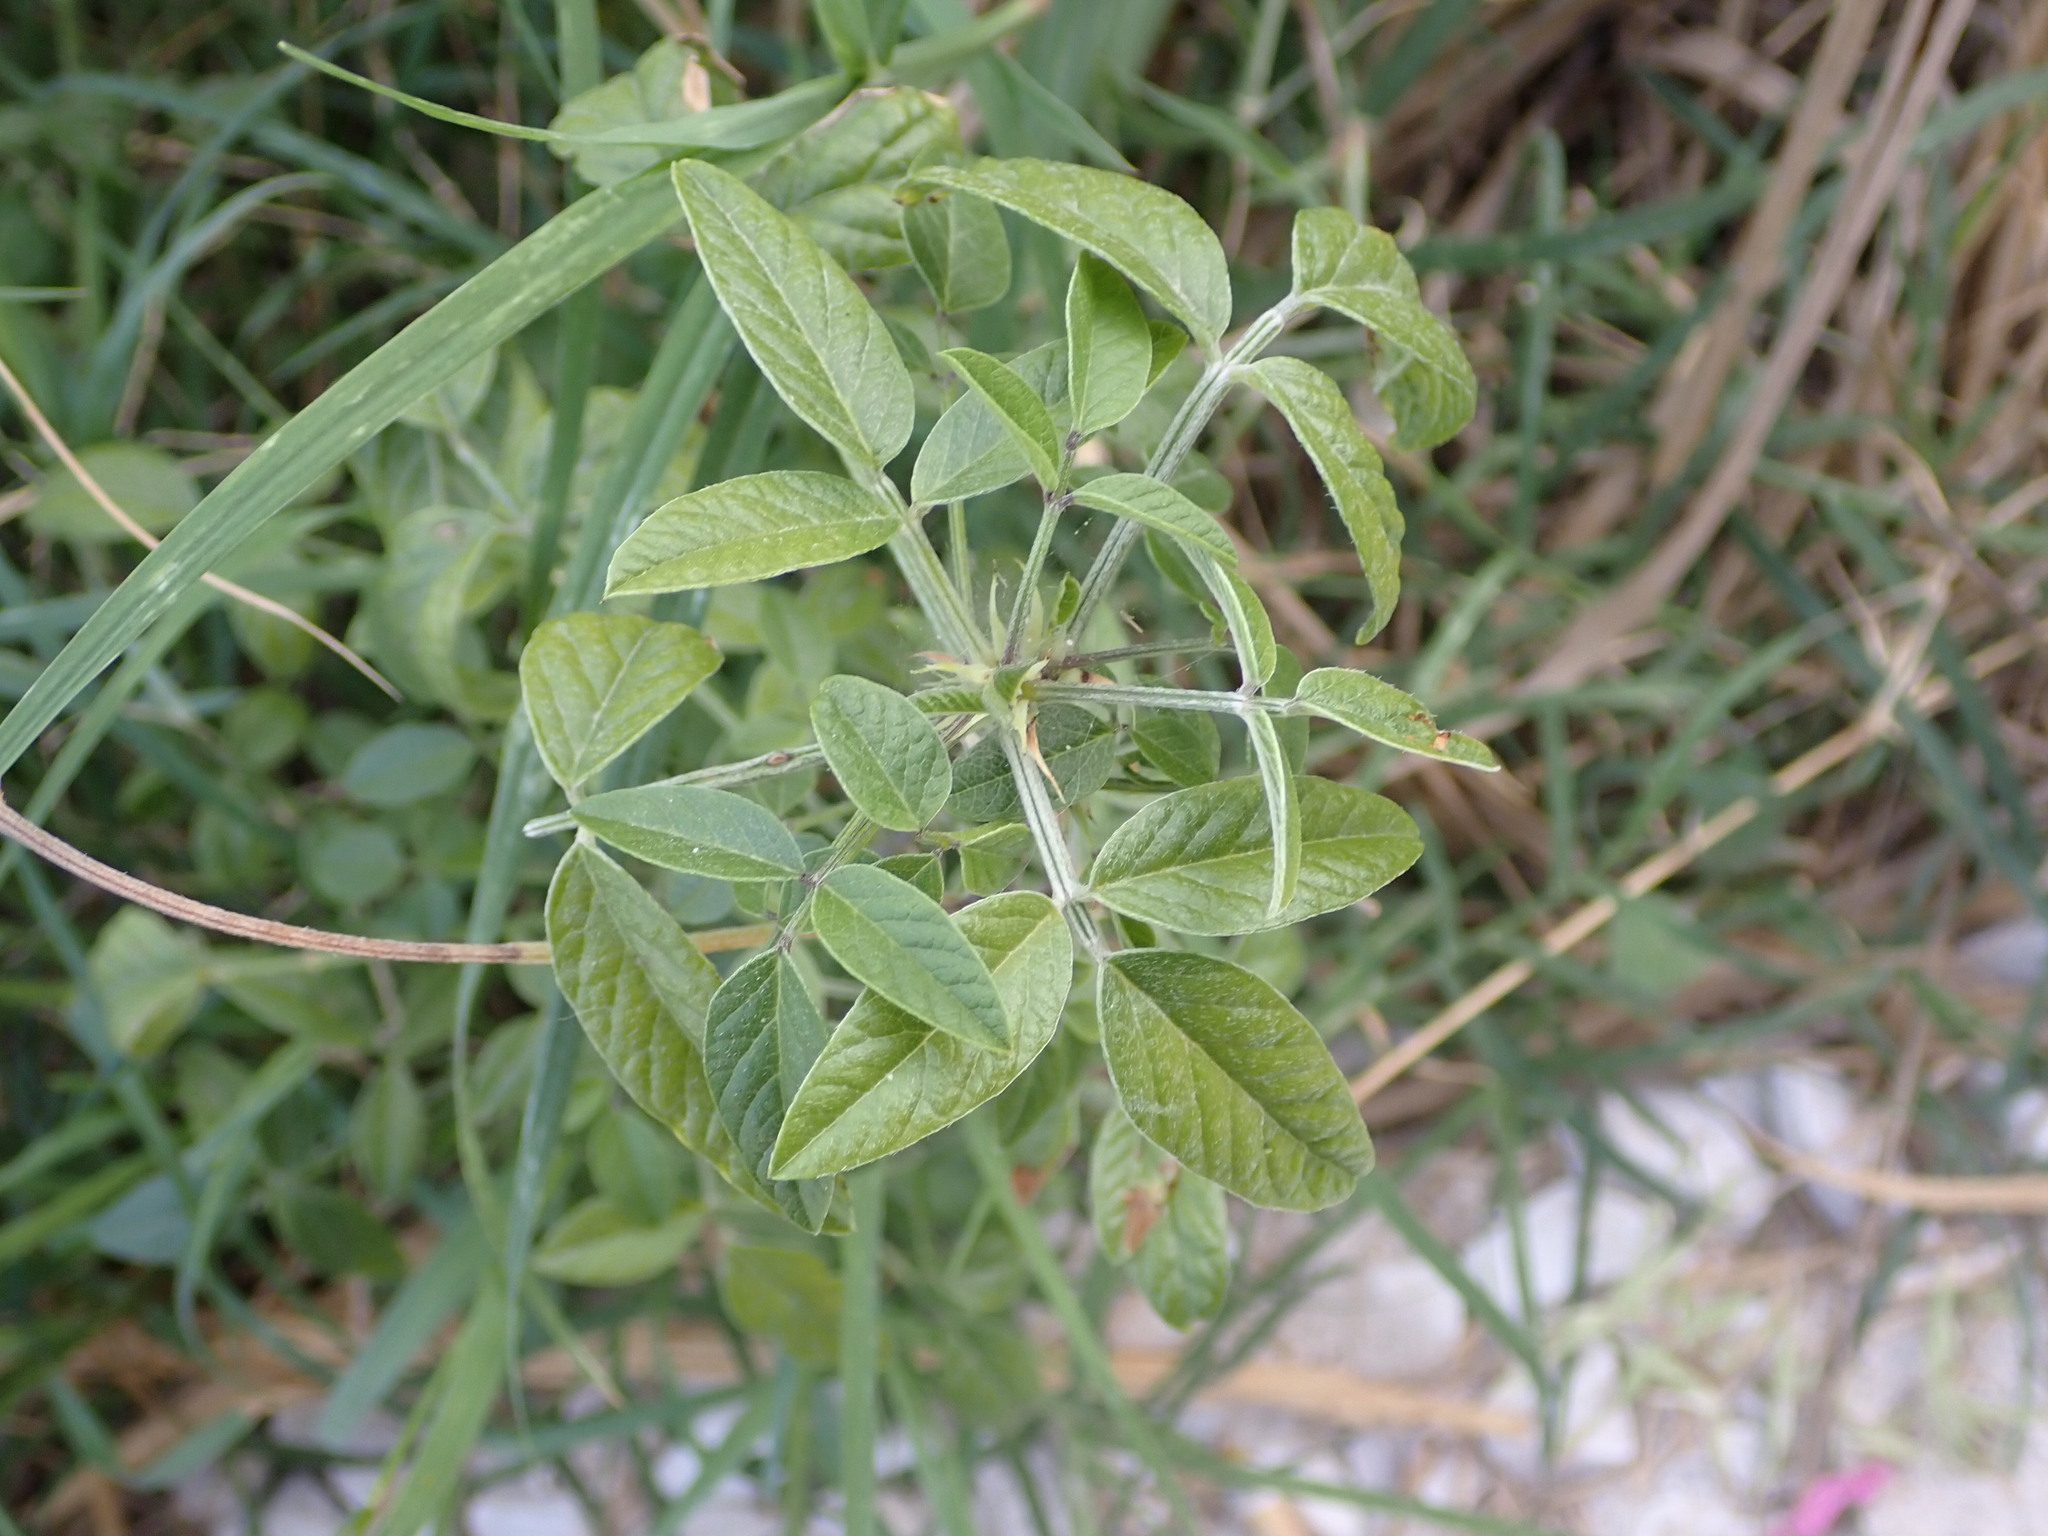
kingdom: Plantae
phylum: Tracheophyta
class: Magnoliopsida
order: Fabales
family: Fabaceae
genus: Bituminaria
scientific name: Bituminaria bituminosa
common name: Arabian pea
